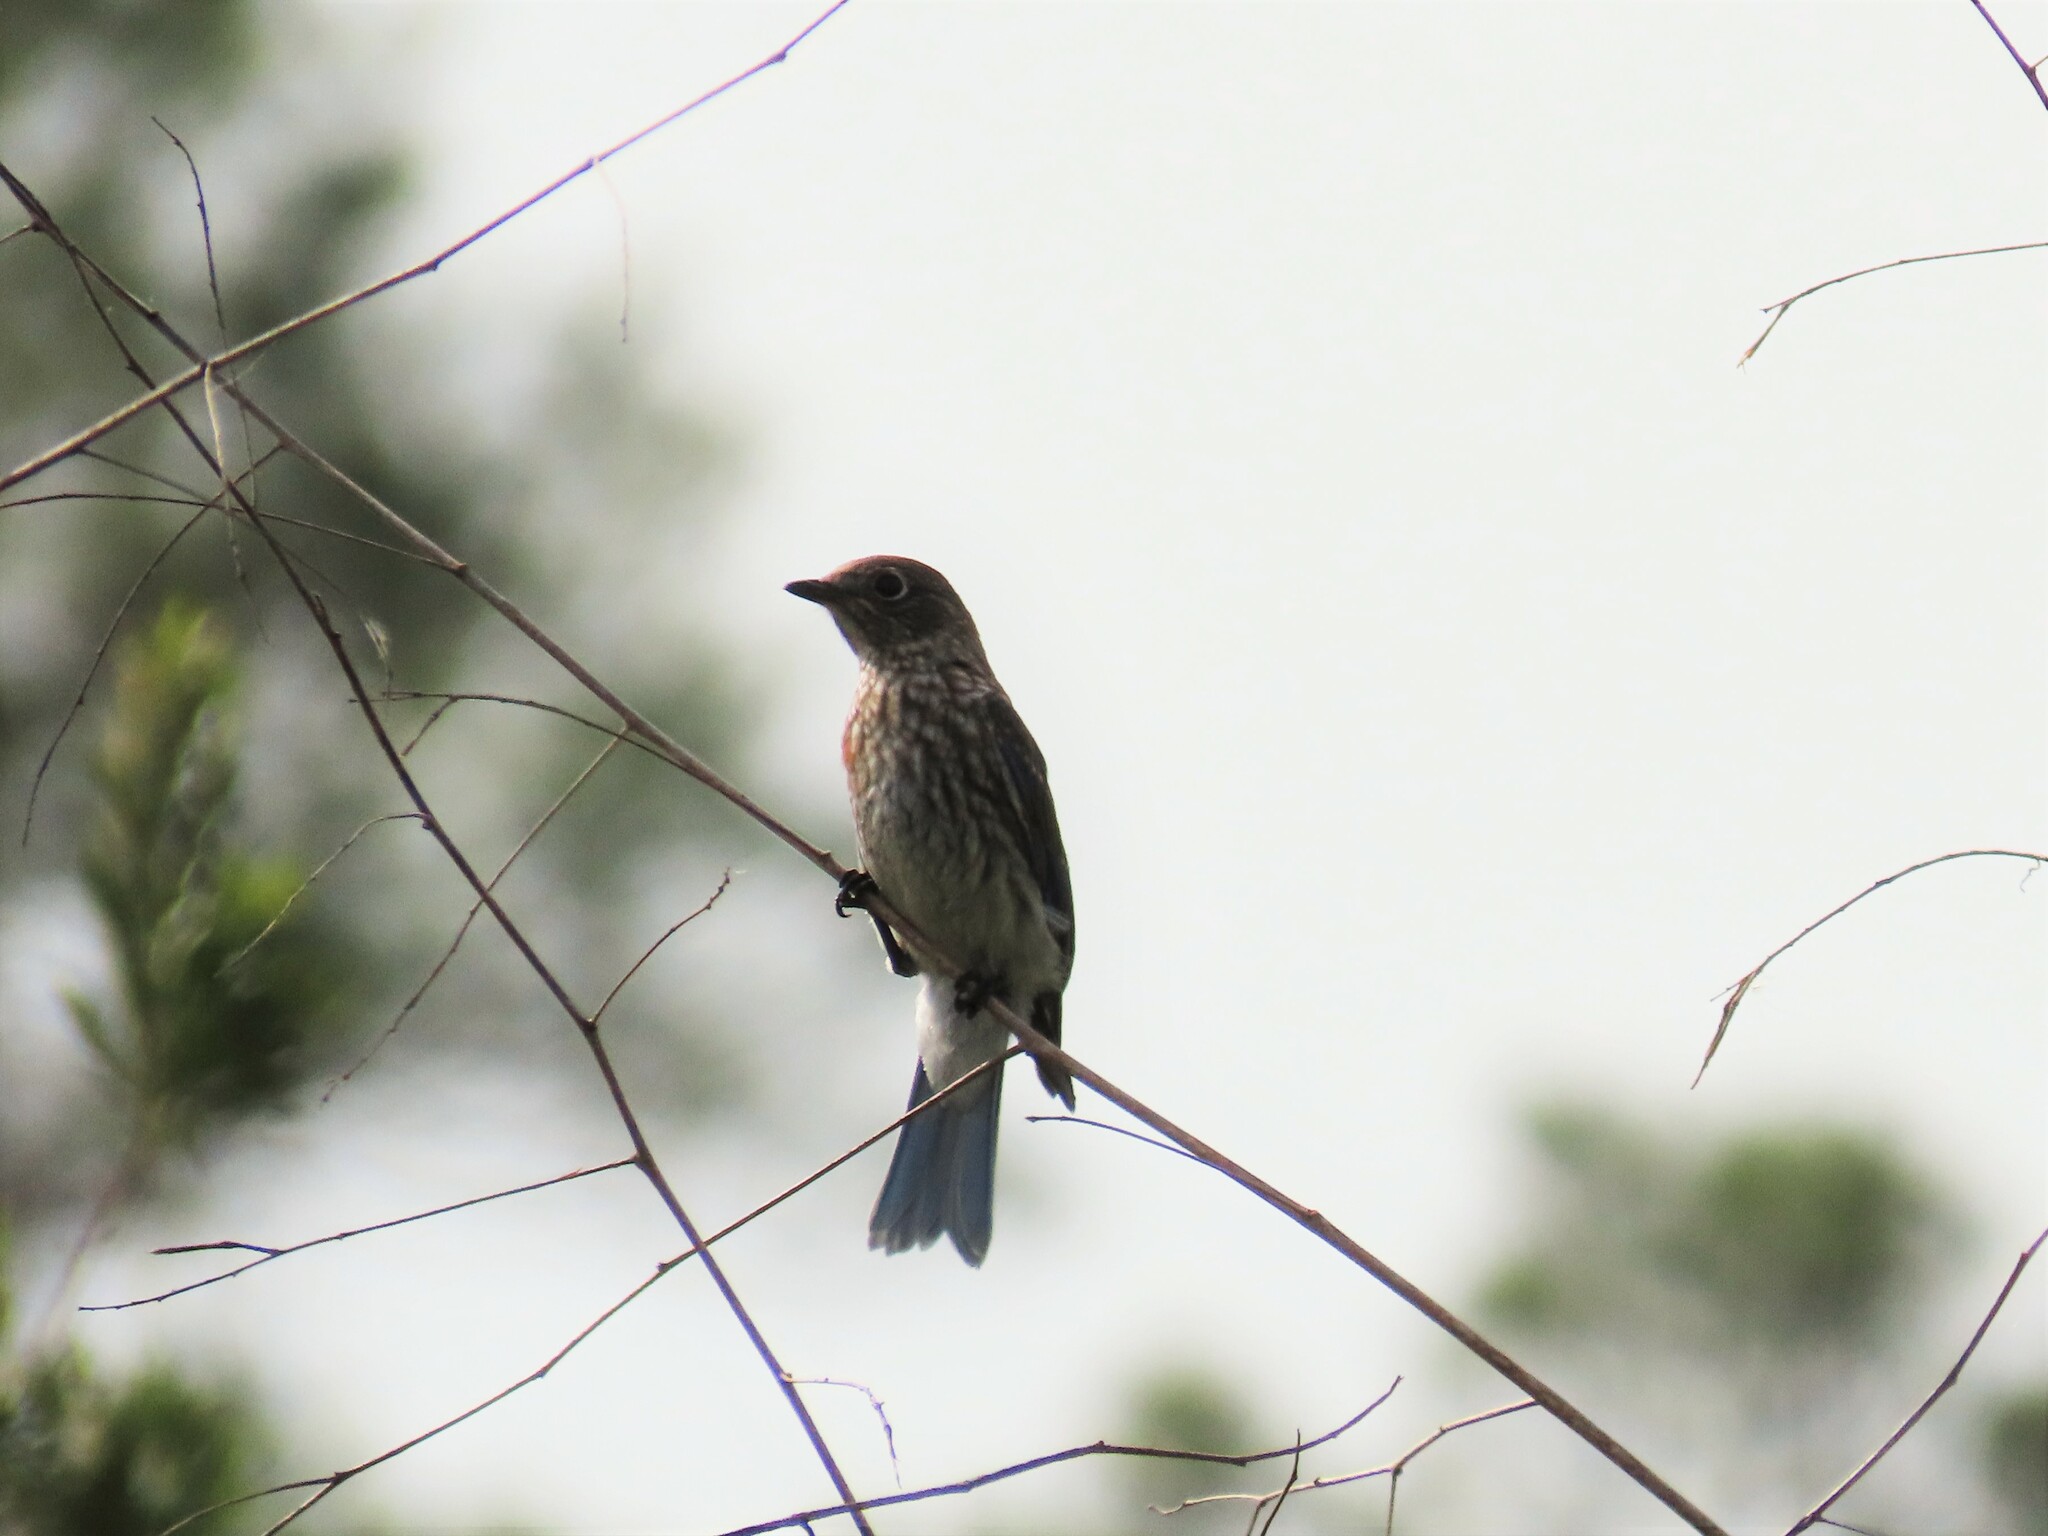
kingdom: Animalia
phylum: Chordata
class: Aves
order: Passeriformes
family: Turdidae
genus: Sialia
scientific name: Sialia sialis
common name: Eastern bluebird
